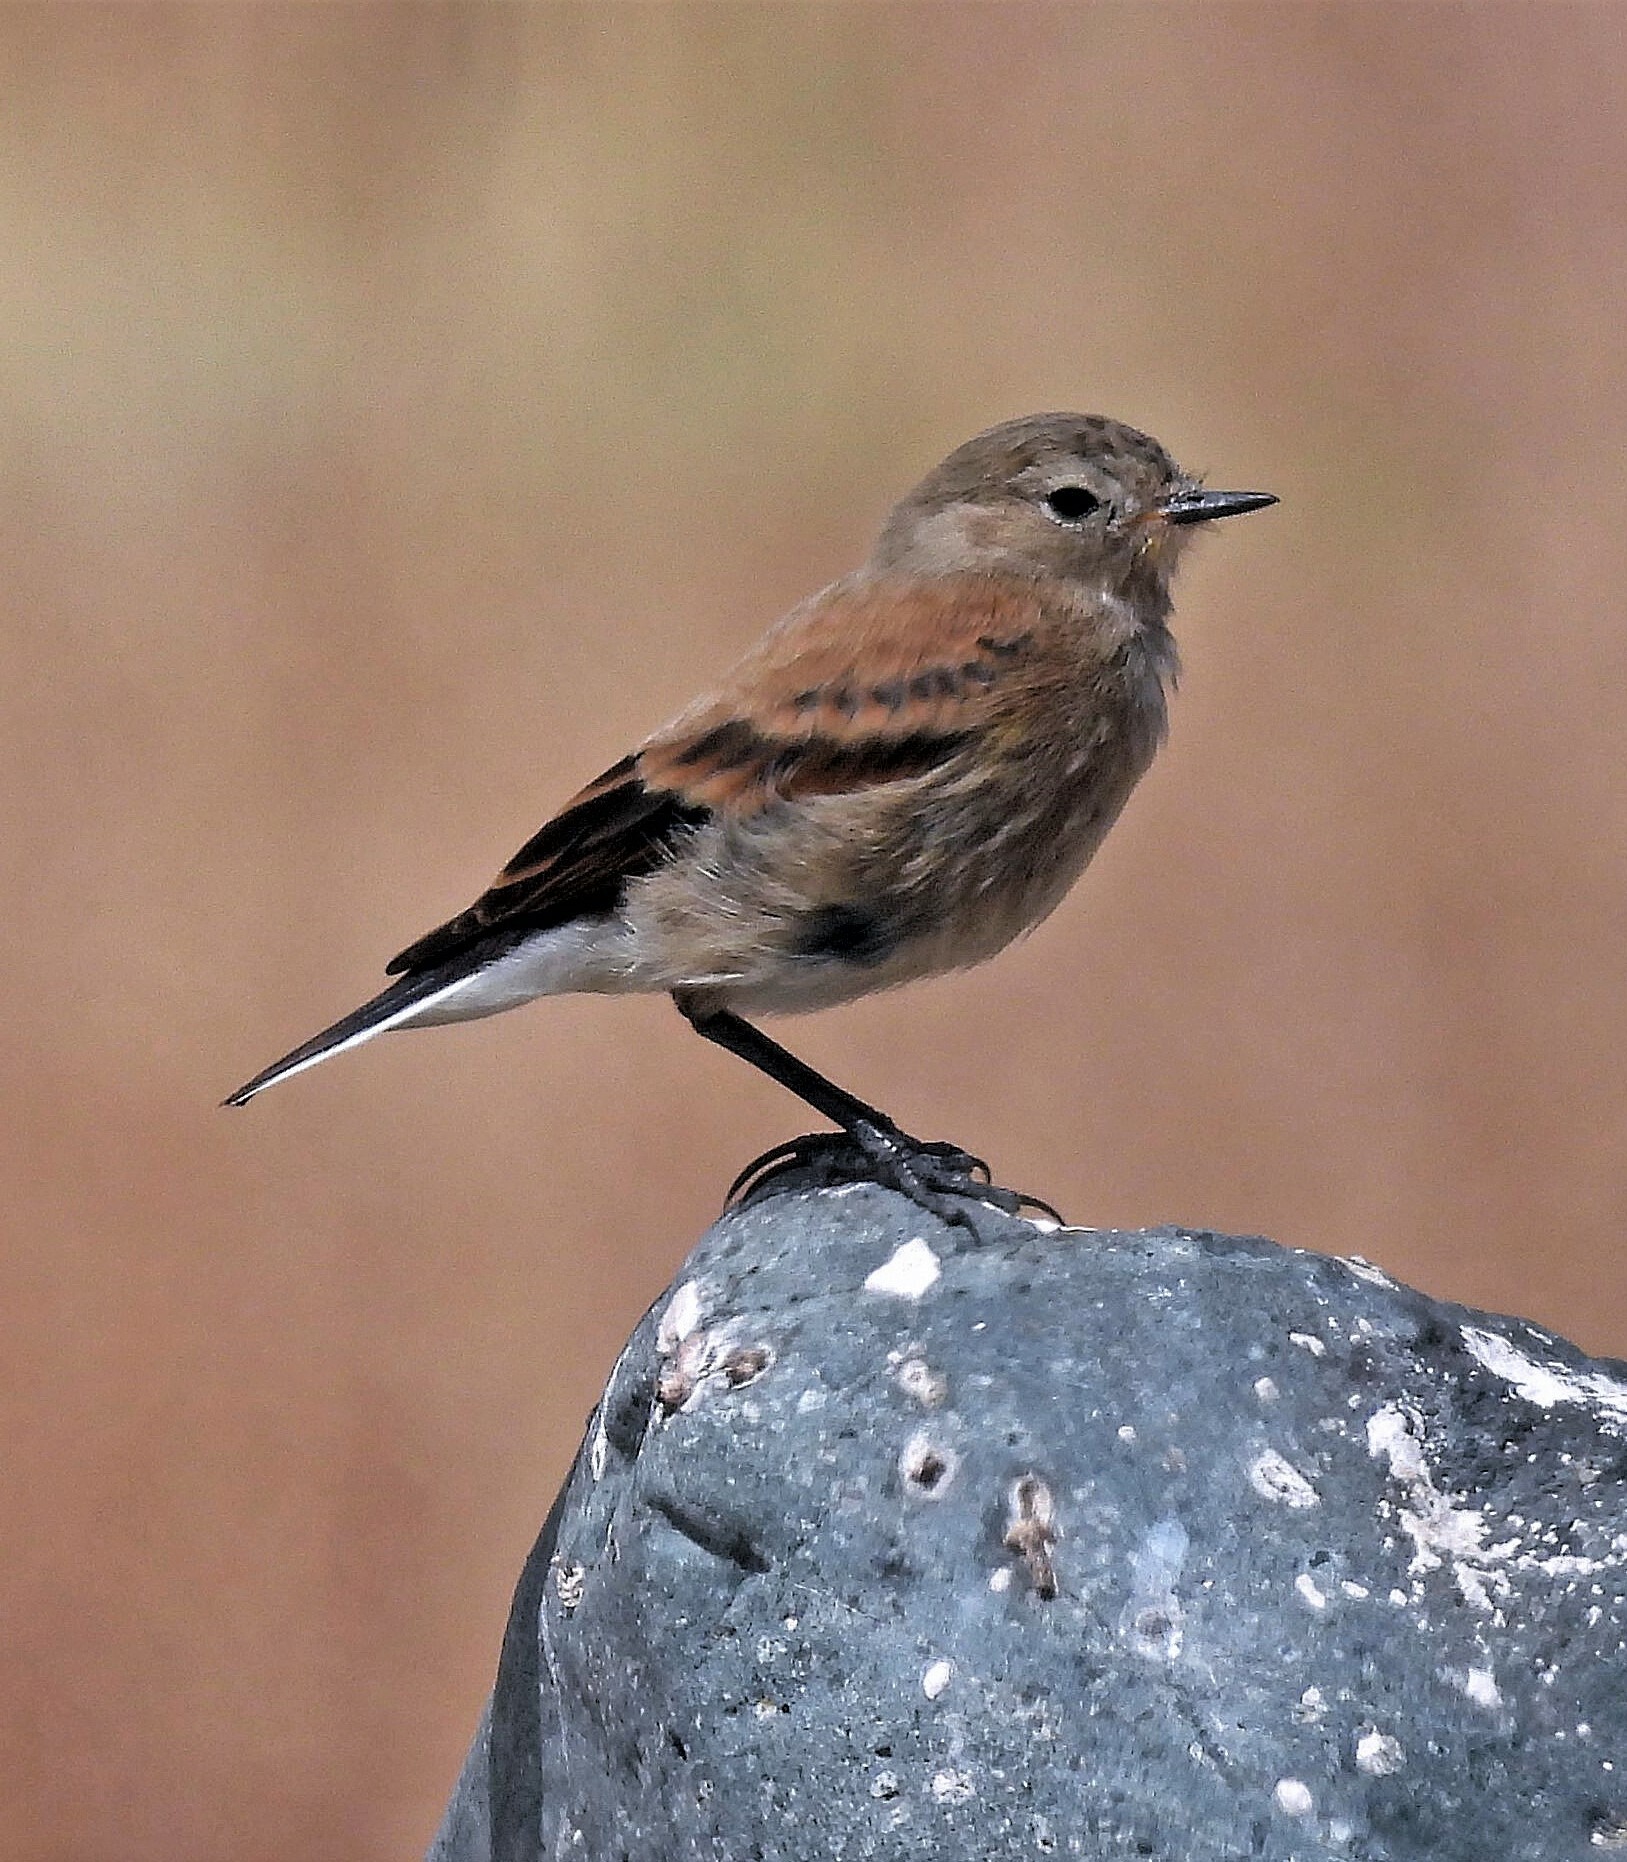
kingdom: Animalia
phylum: Chordata
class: Aves
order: Passeriformes
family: Tyrannidae
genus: Lessonia
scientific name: Lessonia rufa
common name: Austral negrito
